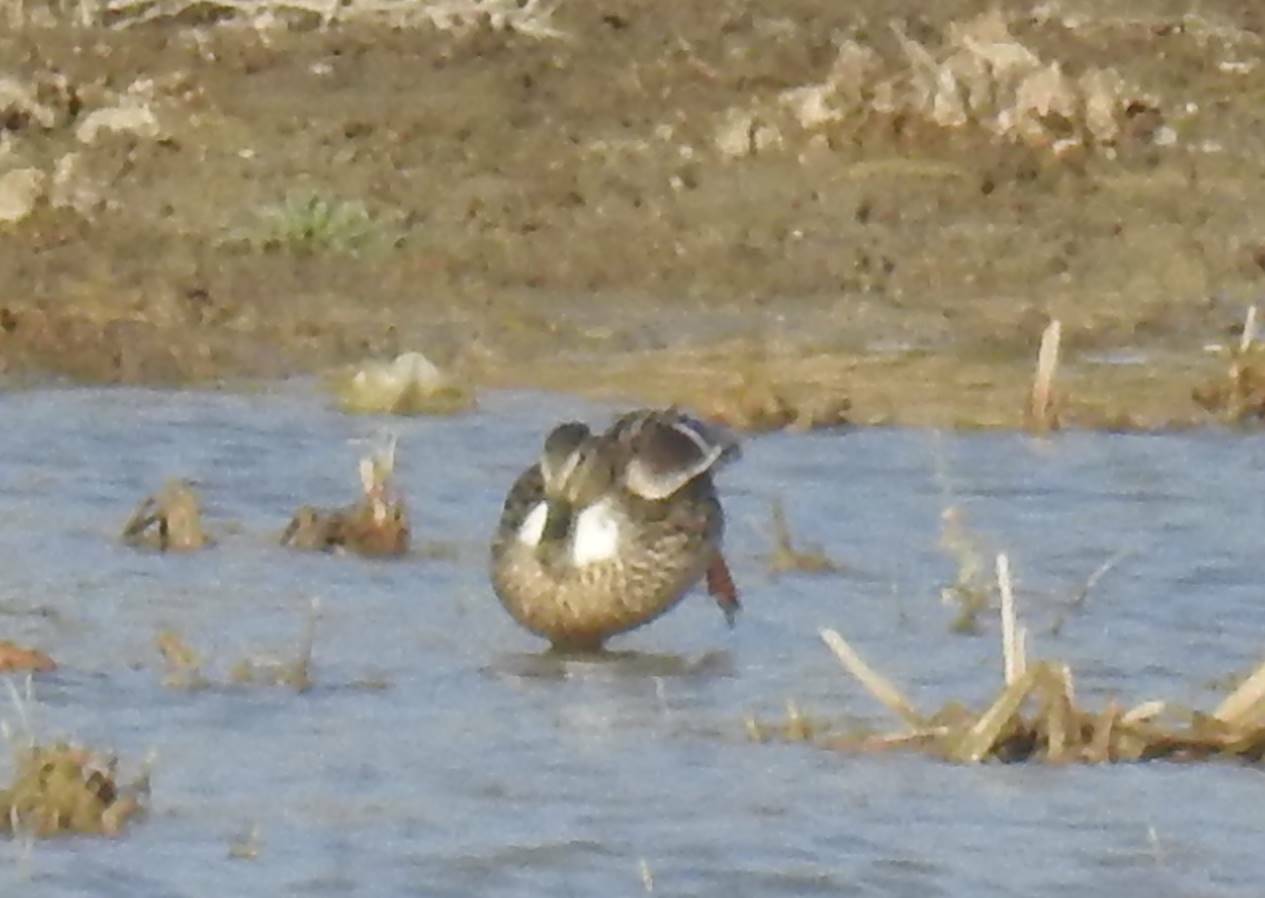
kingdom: Animalia
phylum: Chordata
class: Aves
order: Anseriformes
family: Anatidae
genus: Anas
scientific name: Anas platyrhynchos
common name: Mallard
